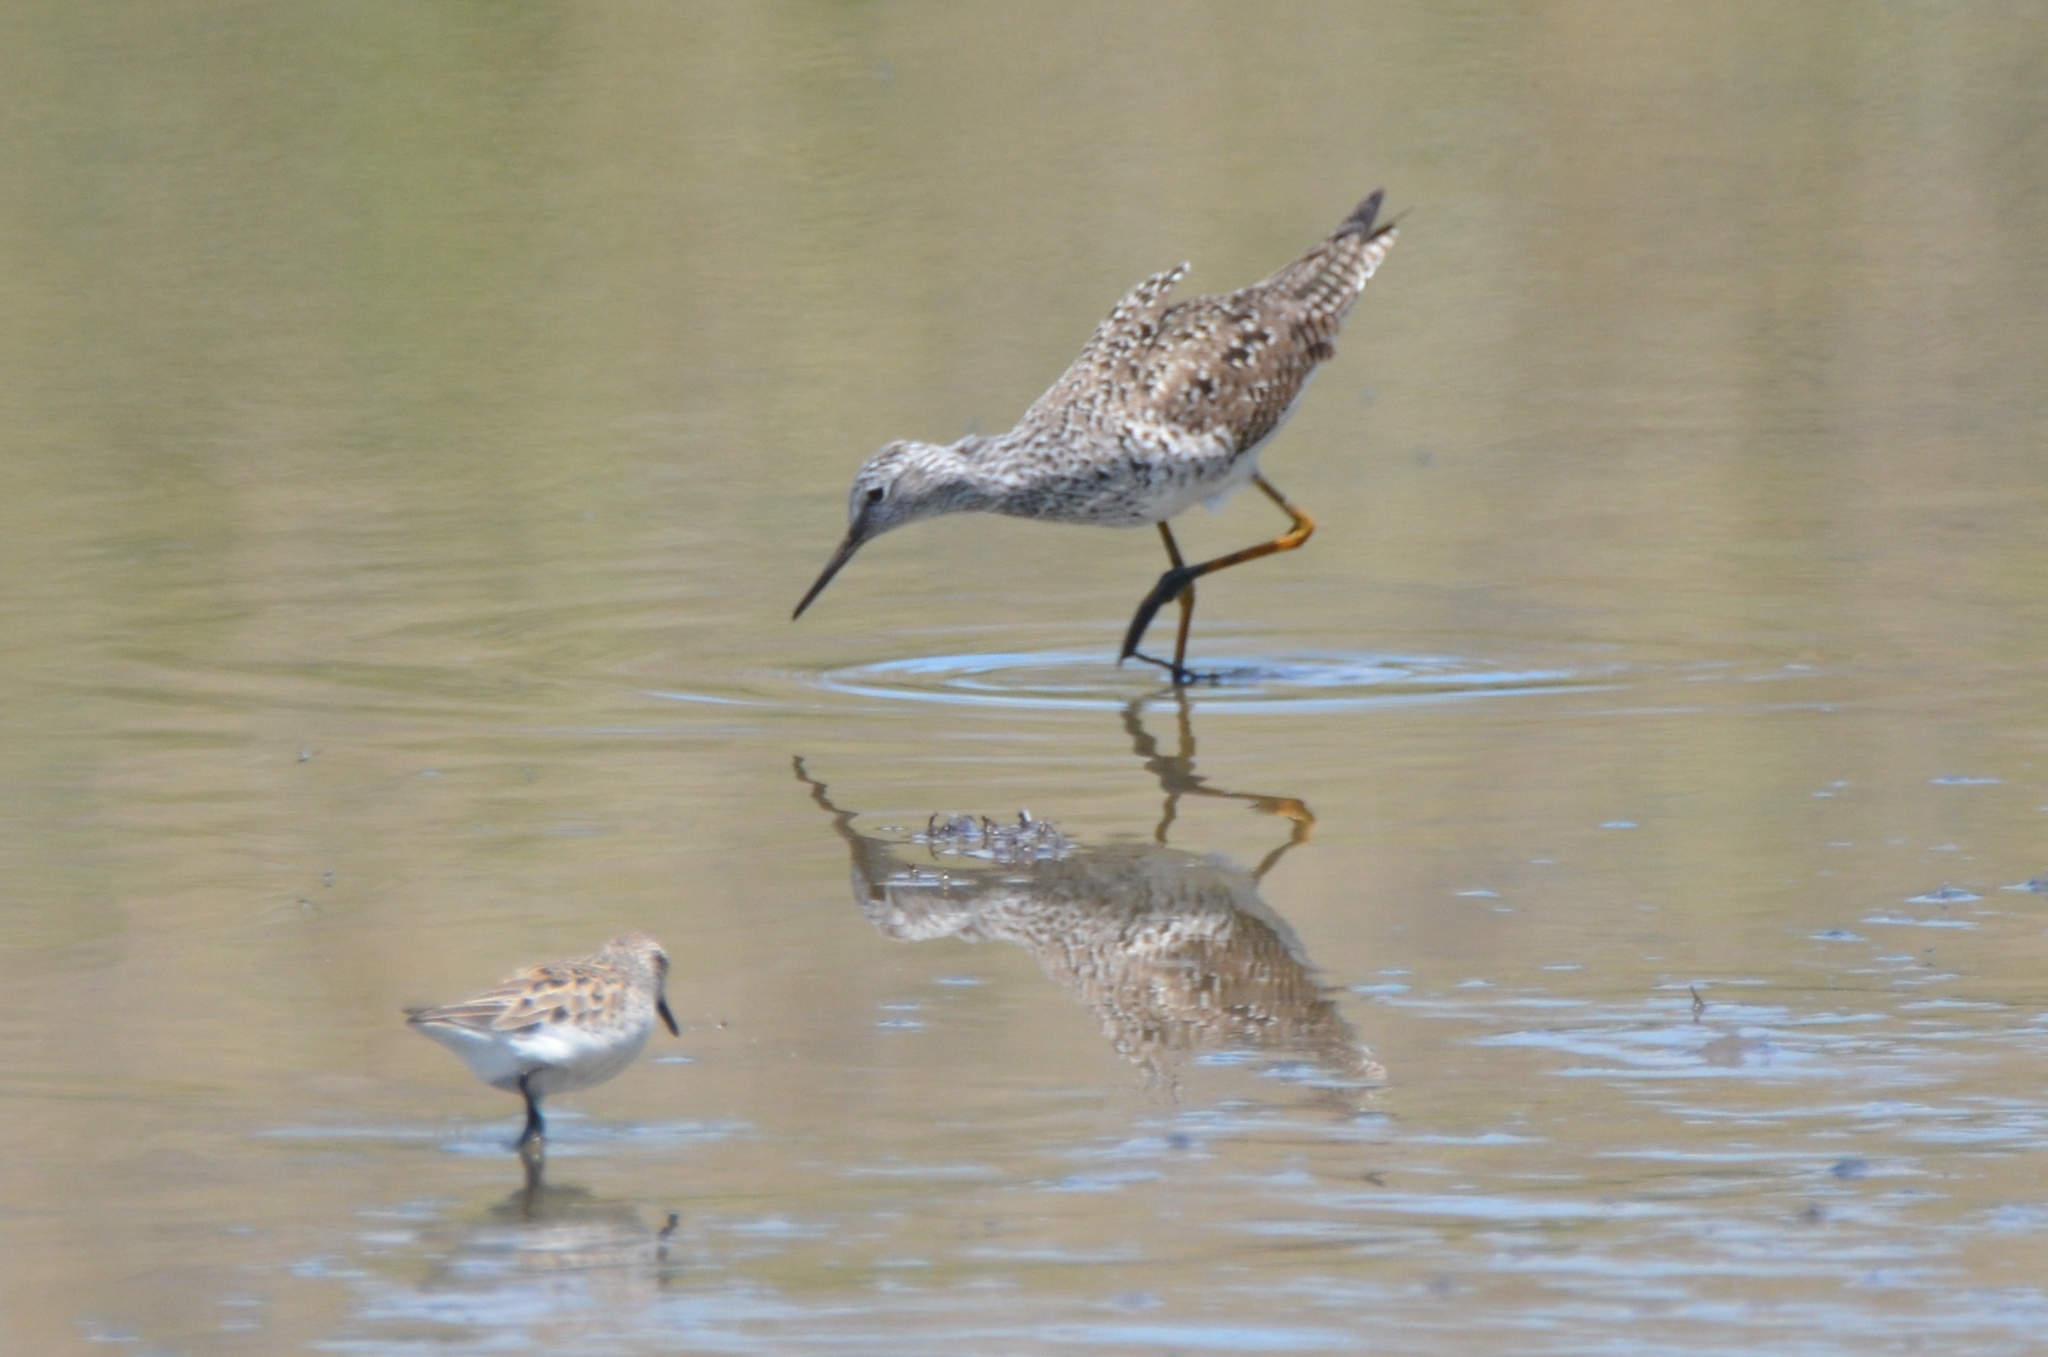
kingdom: Animalia
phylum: Chordata
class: Aves
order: Charadriiformes
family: Scolopacidae
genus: Tringa
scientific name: Tringa flavipes
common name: Lesser yellowlegs
